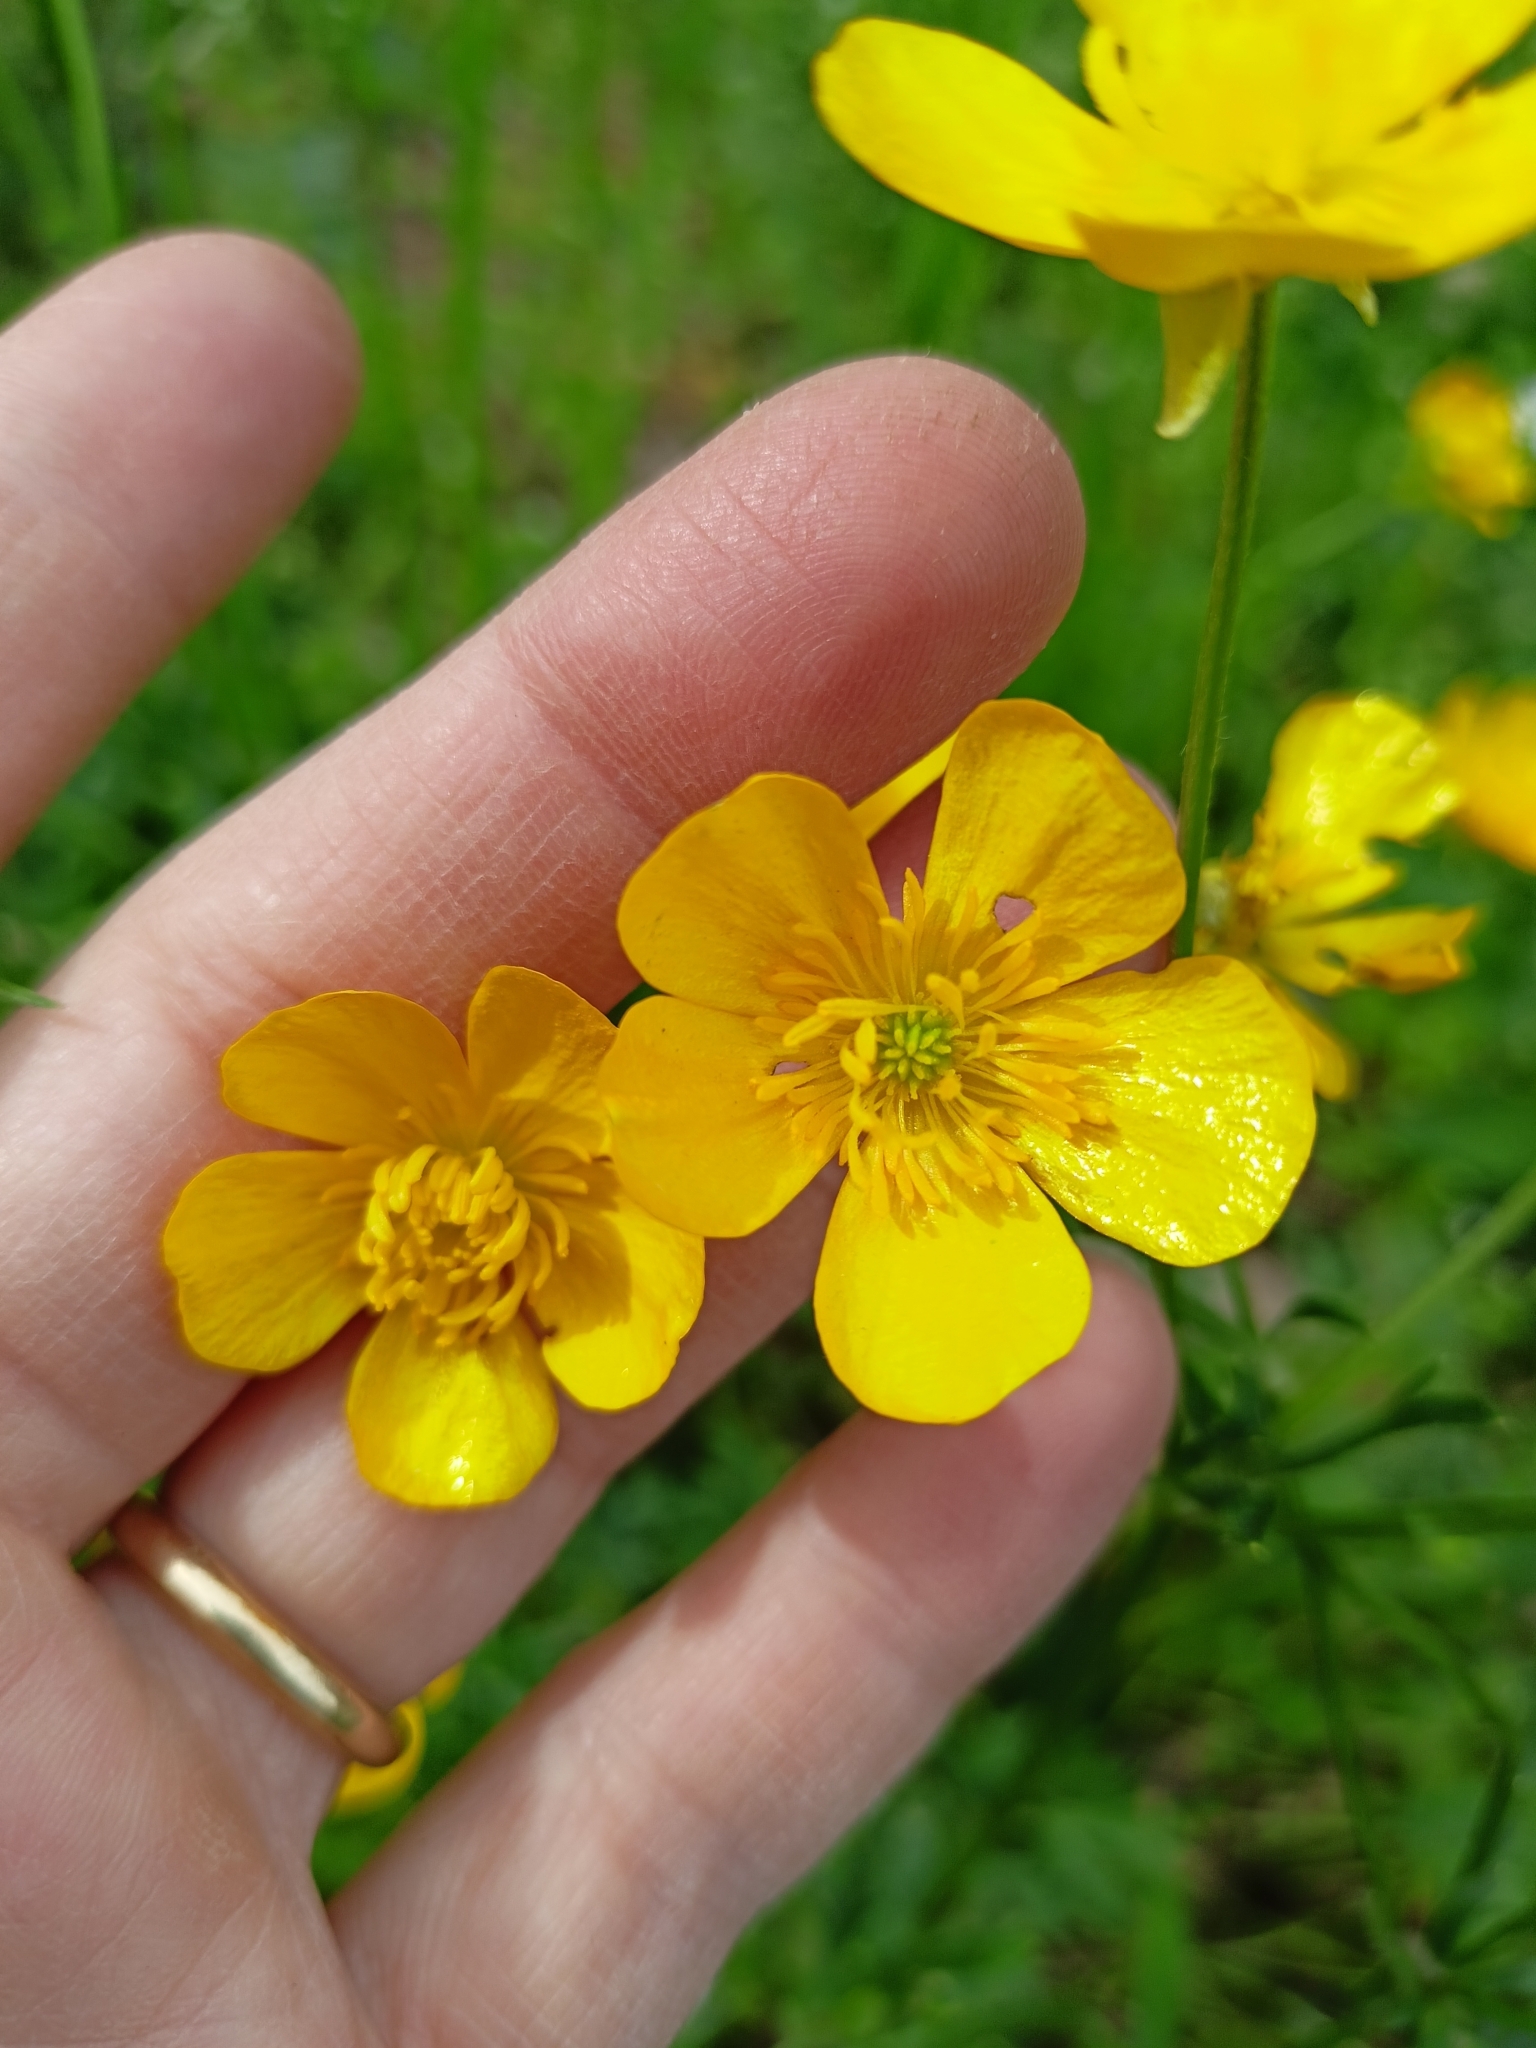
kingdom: Plantae
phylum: Tracheophyta
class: Magnoliopsida
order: Ranunculales
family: Ranunculaceae
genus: Ranunculus
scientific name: Ranunculus acris
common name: Meadow buttercup
